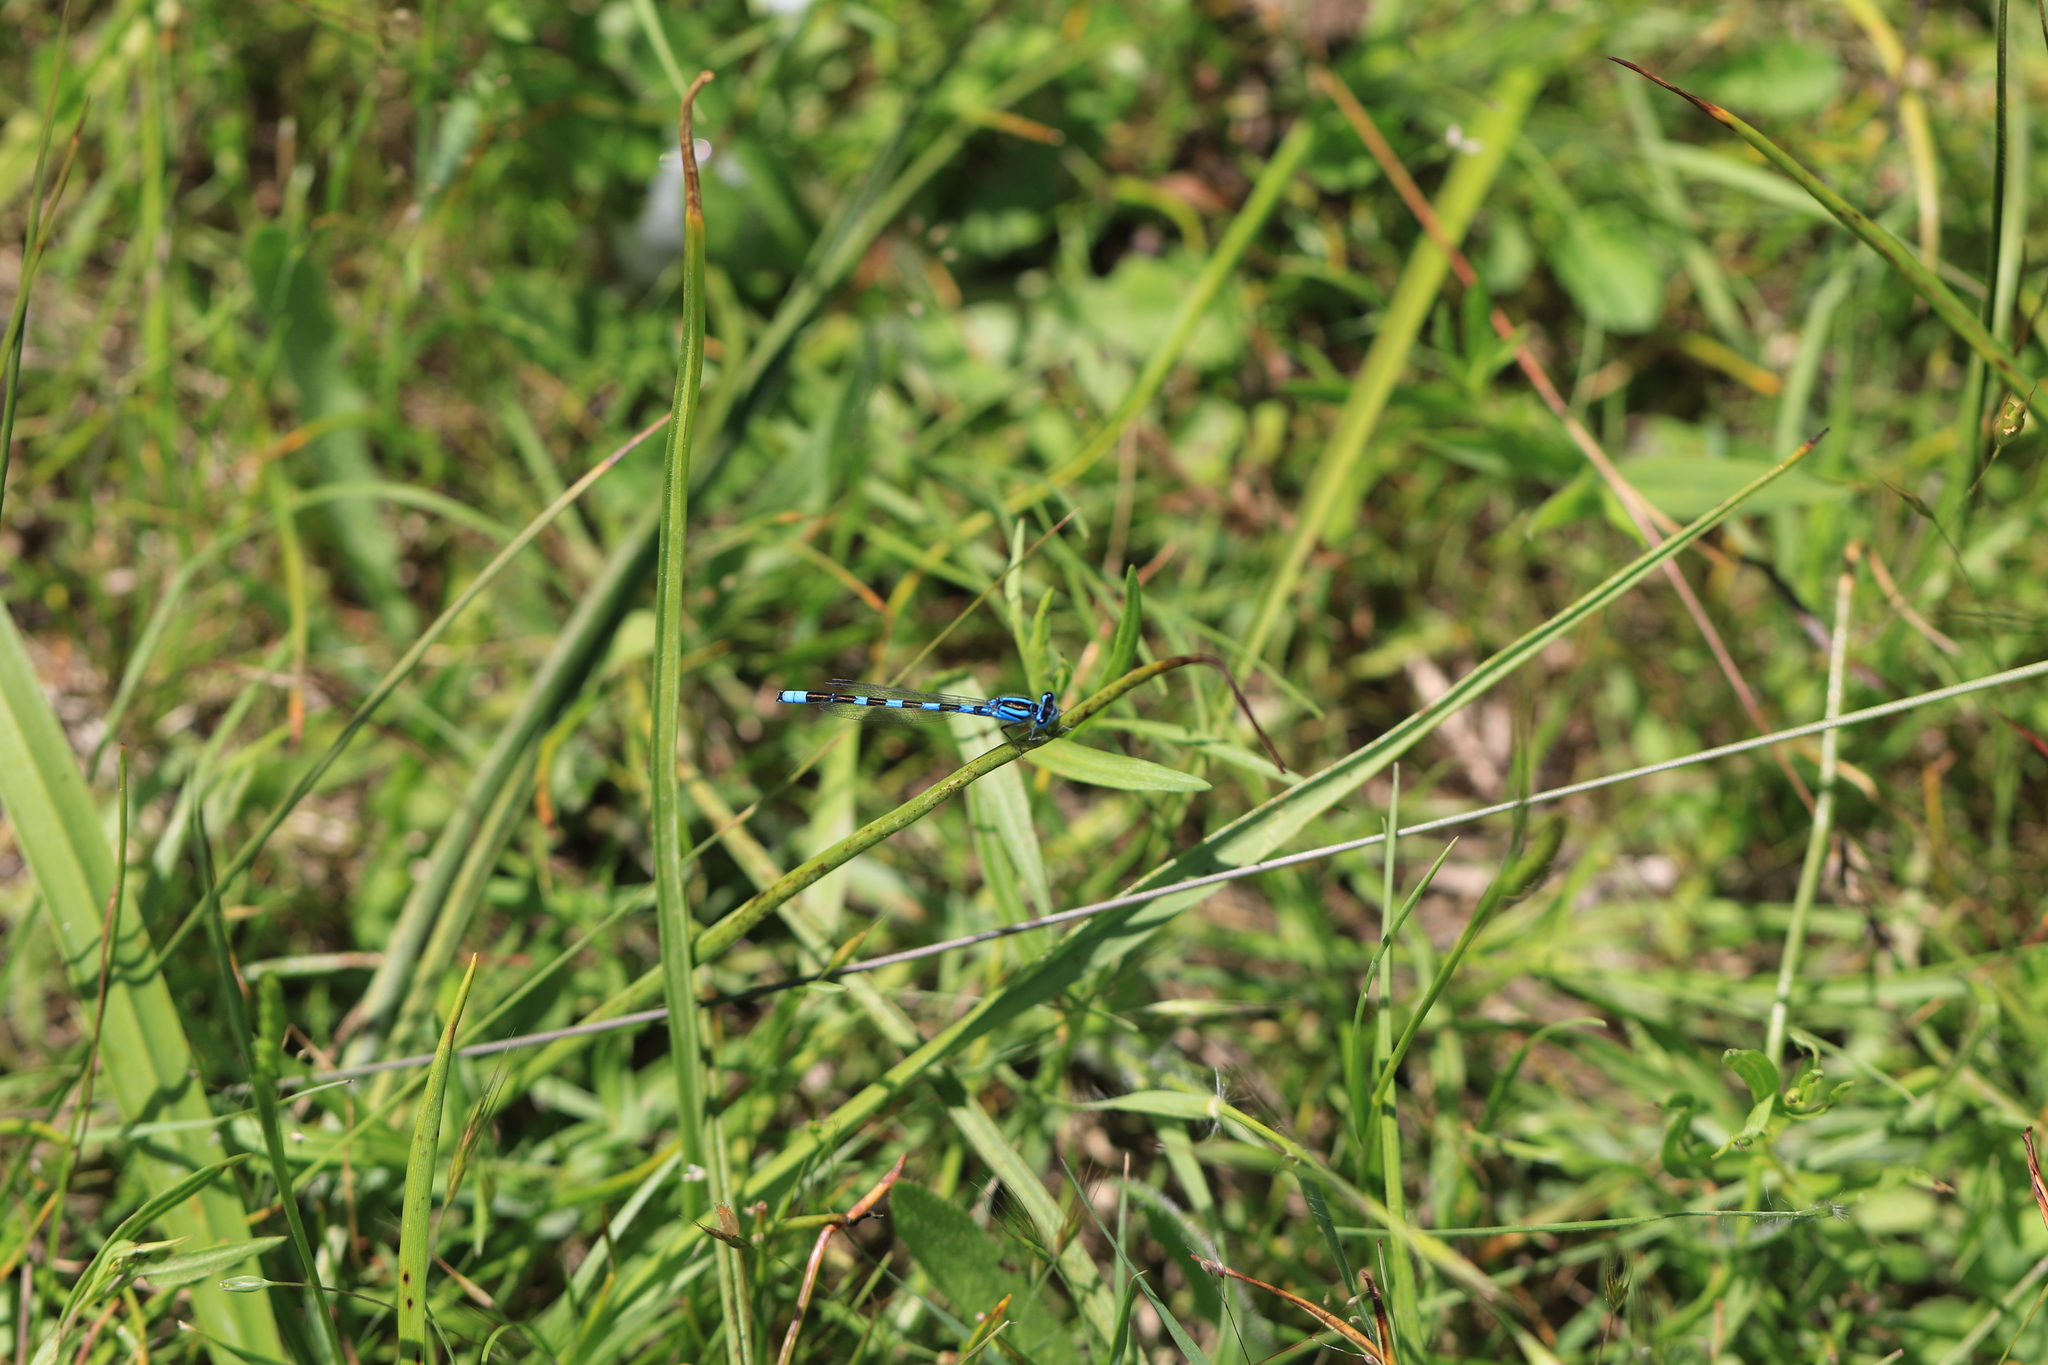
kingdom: Animalia
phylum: Arthropoda
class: Insecta
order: Odonata
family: Coenagrionidae
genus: Enallagma
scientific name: Enallagma carunculatum
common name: Tule bluet
